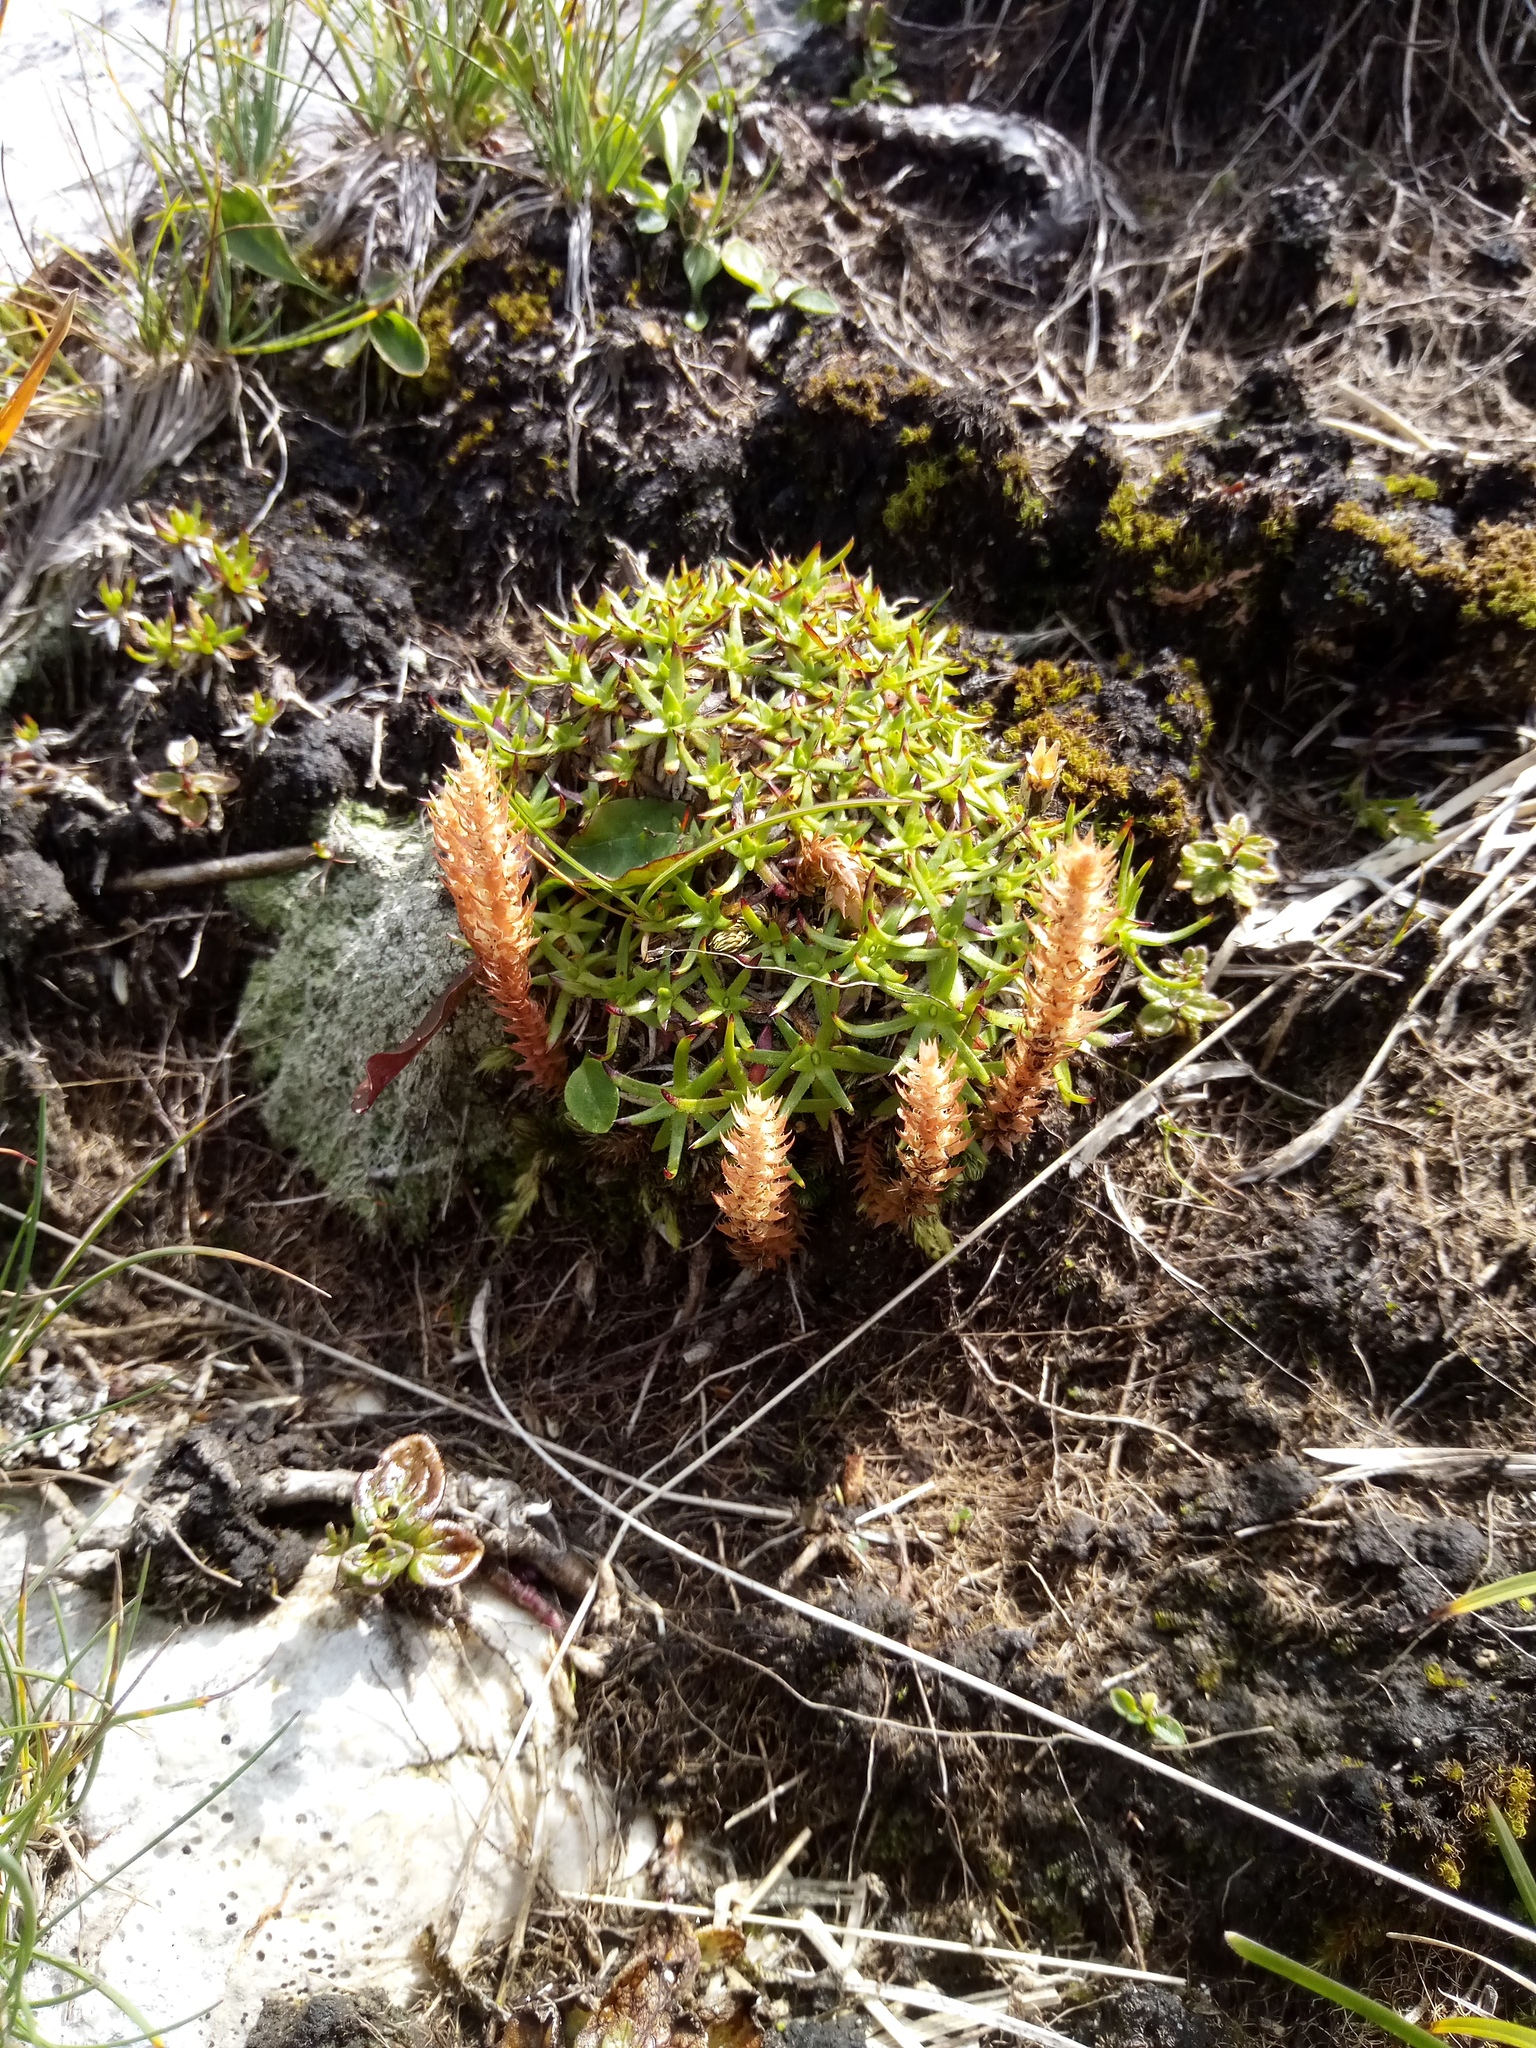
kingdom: Plantae
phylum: Tracheophyta
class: Magnoliopsida
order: Caryophyllales
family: Caryophyllaceae
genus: Silene
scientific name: Silene acaulis
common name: Moss campion
